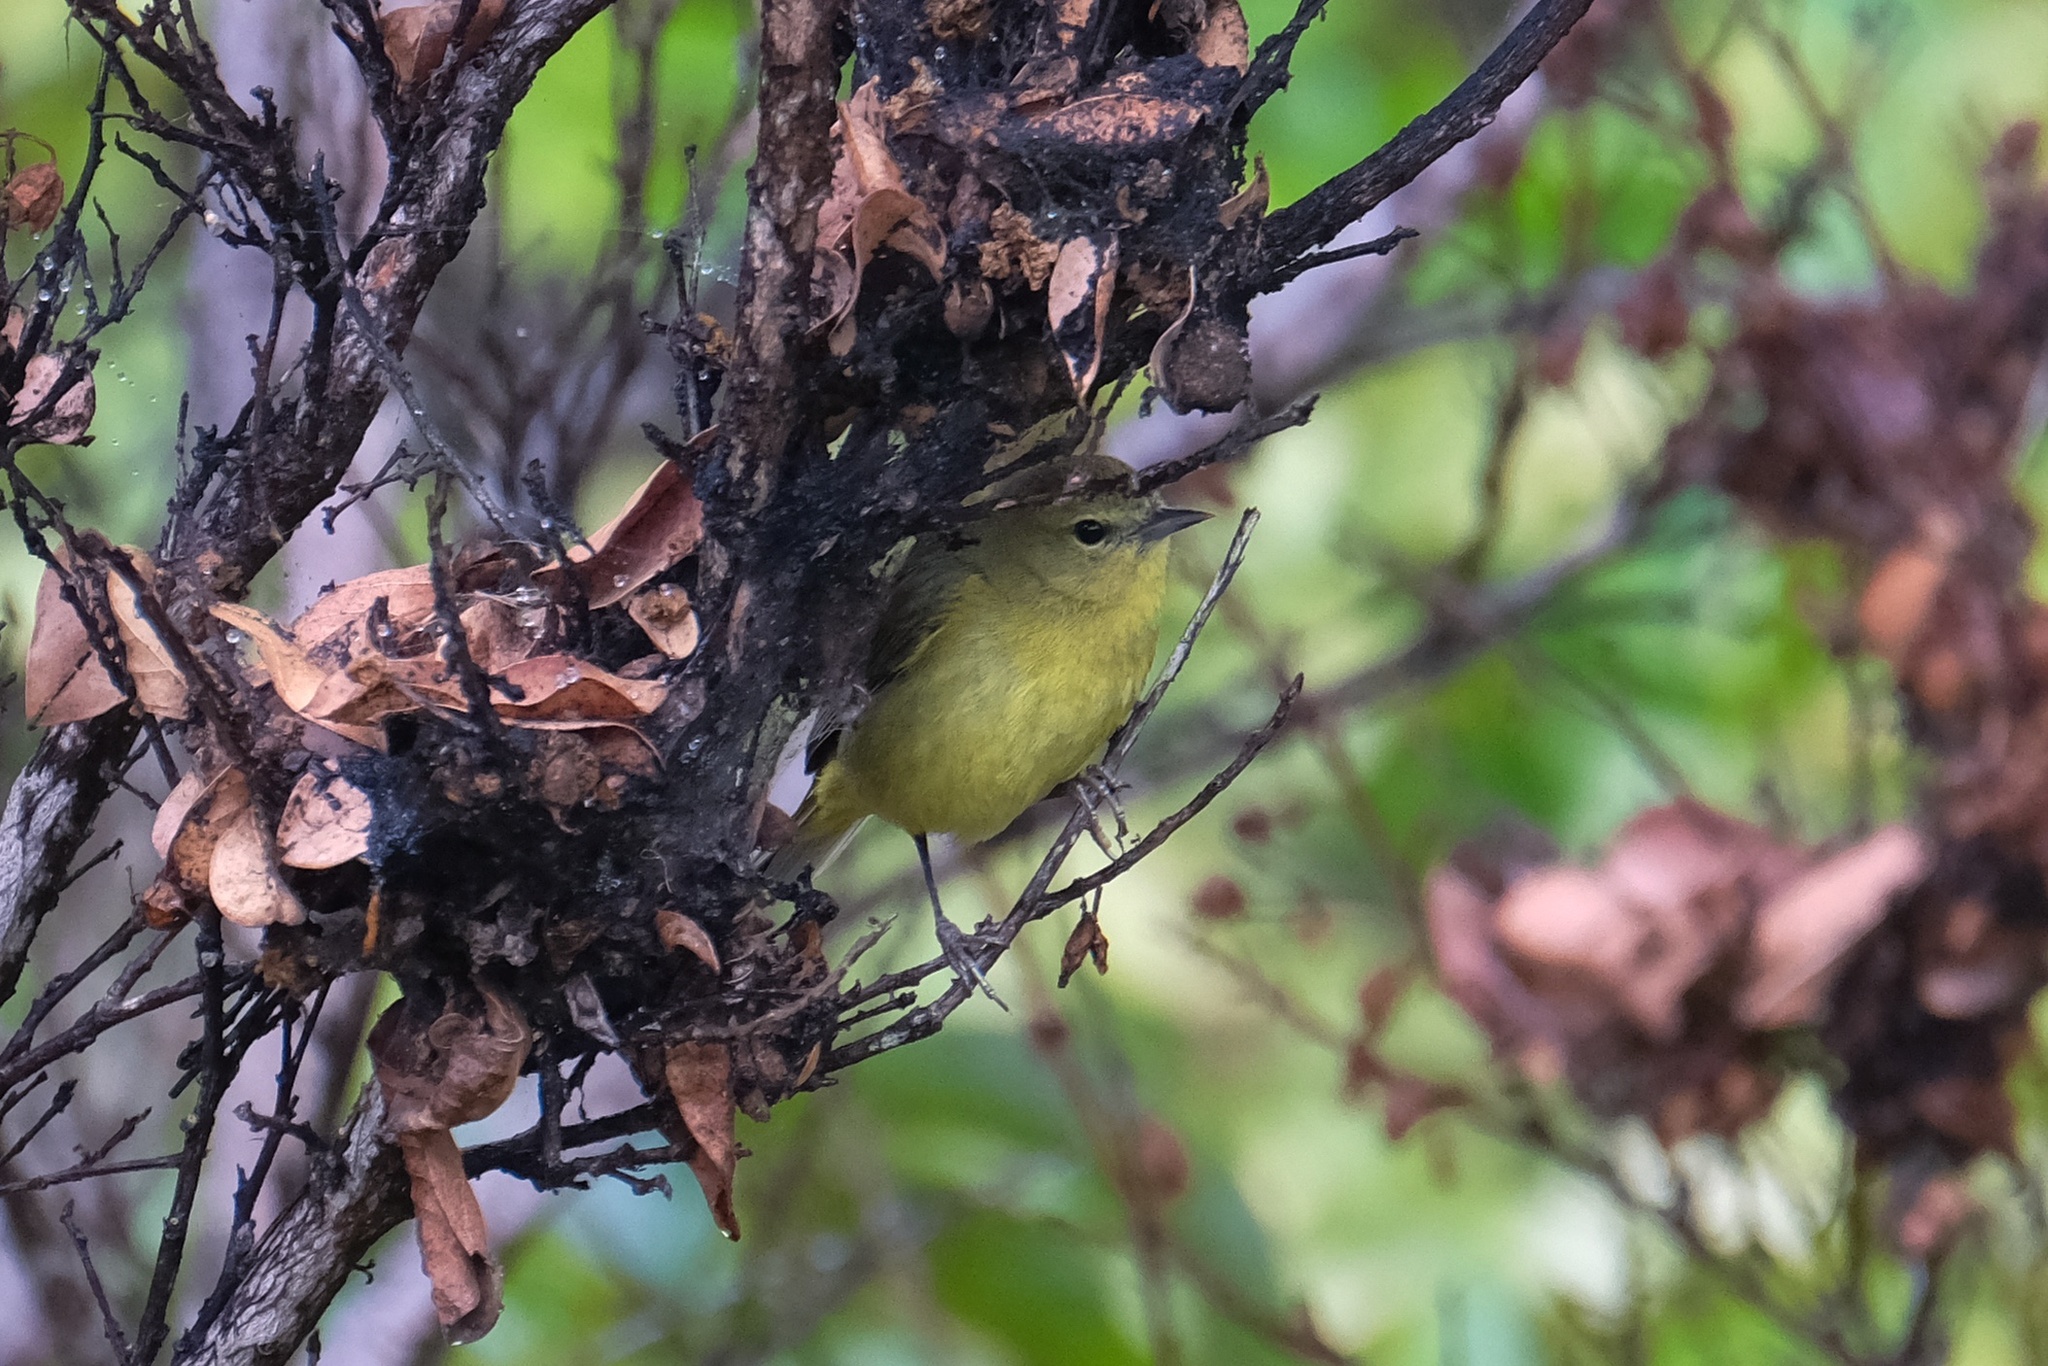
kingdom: Animalia
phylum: Chordata
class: Aves
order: Passeriformes
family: Parulidae
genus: Leiothlypis
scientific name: Leiothlypis celata
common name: Orange-crowned warbler
